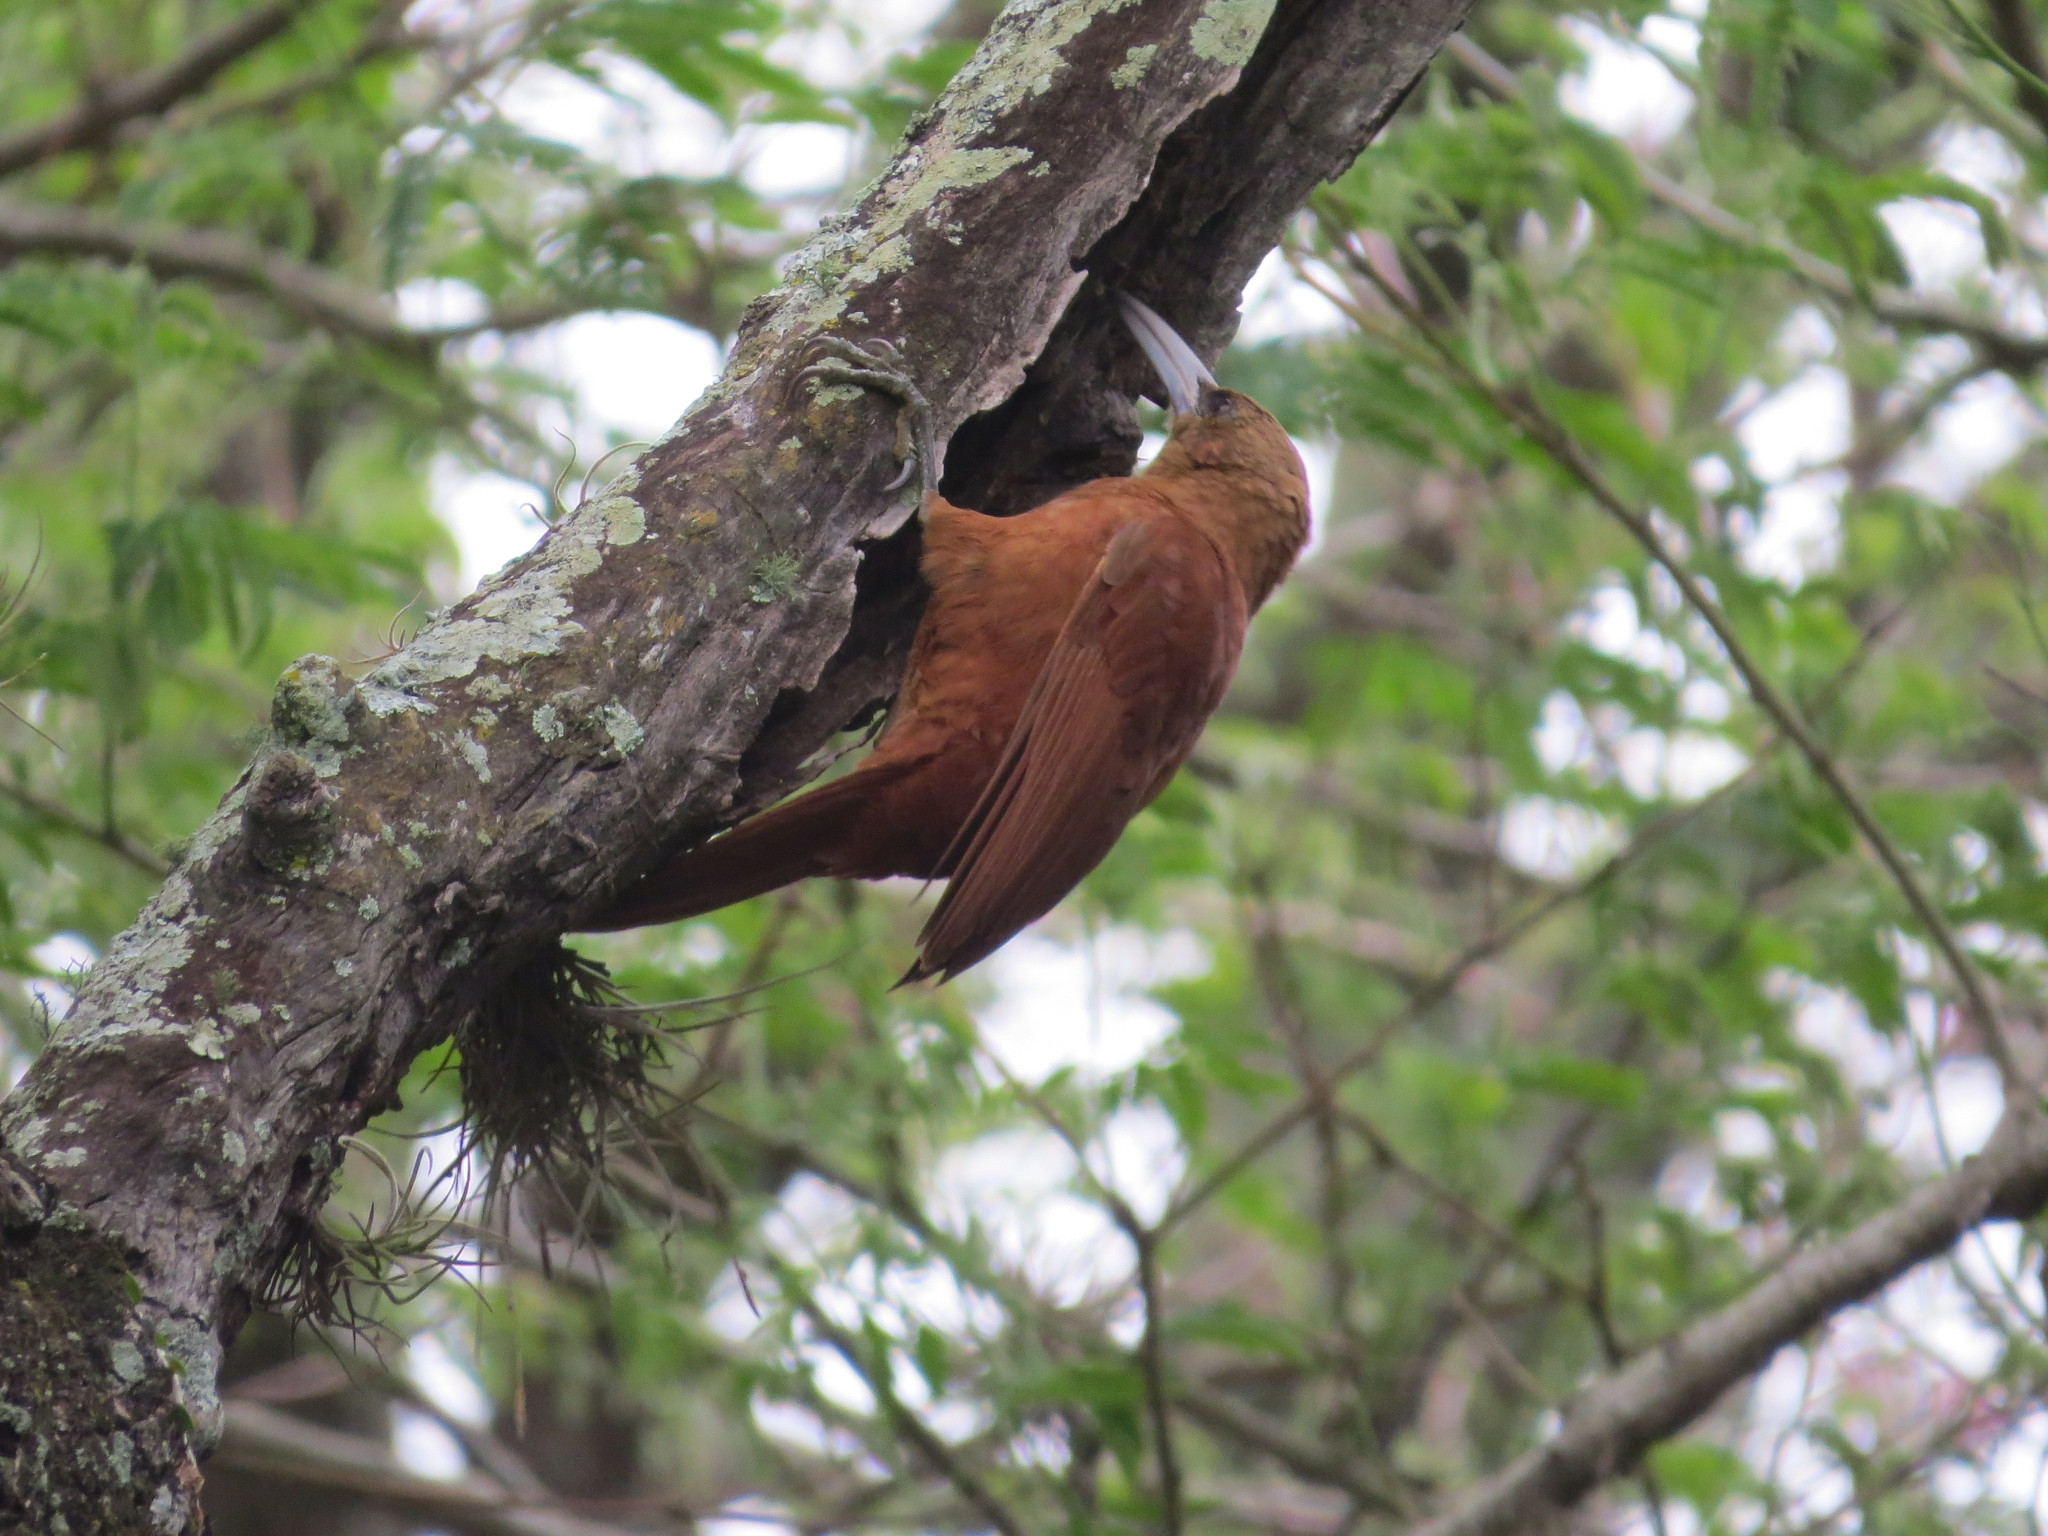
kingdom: Animalia
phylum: Chordata
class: Aves
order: Passeriformes
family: Furnariidae
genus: Xiphocolaptes
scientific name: Xiphocolaptes major
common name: Great rufous woodcreeper
